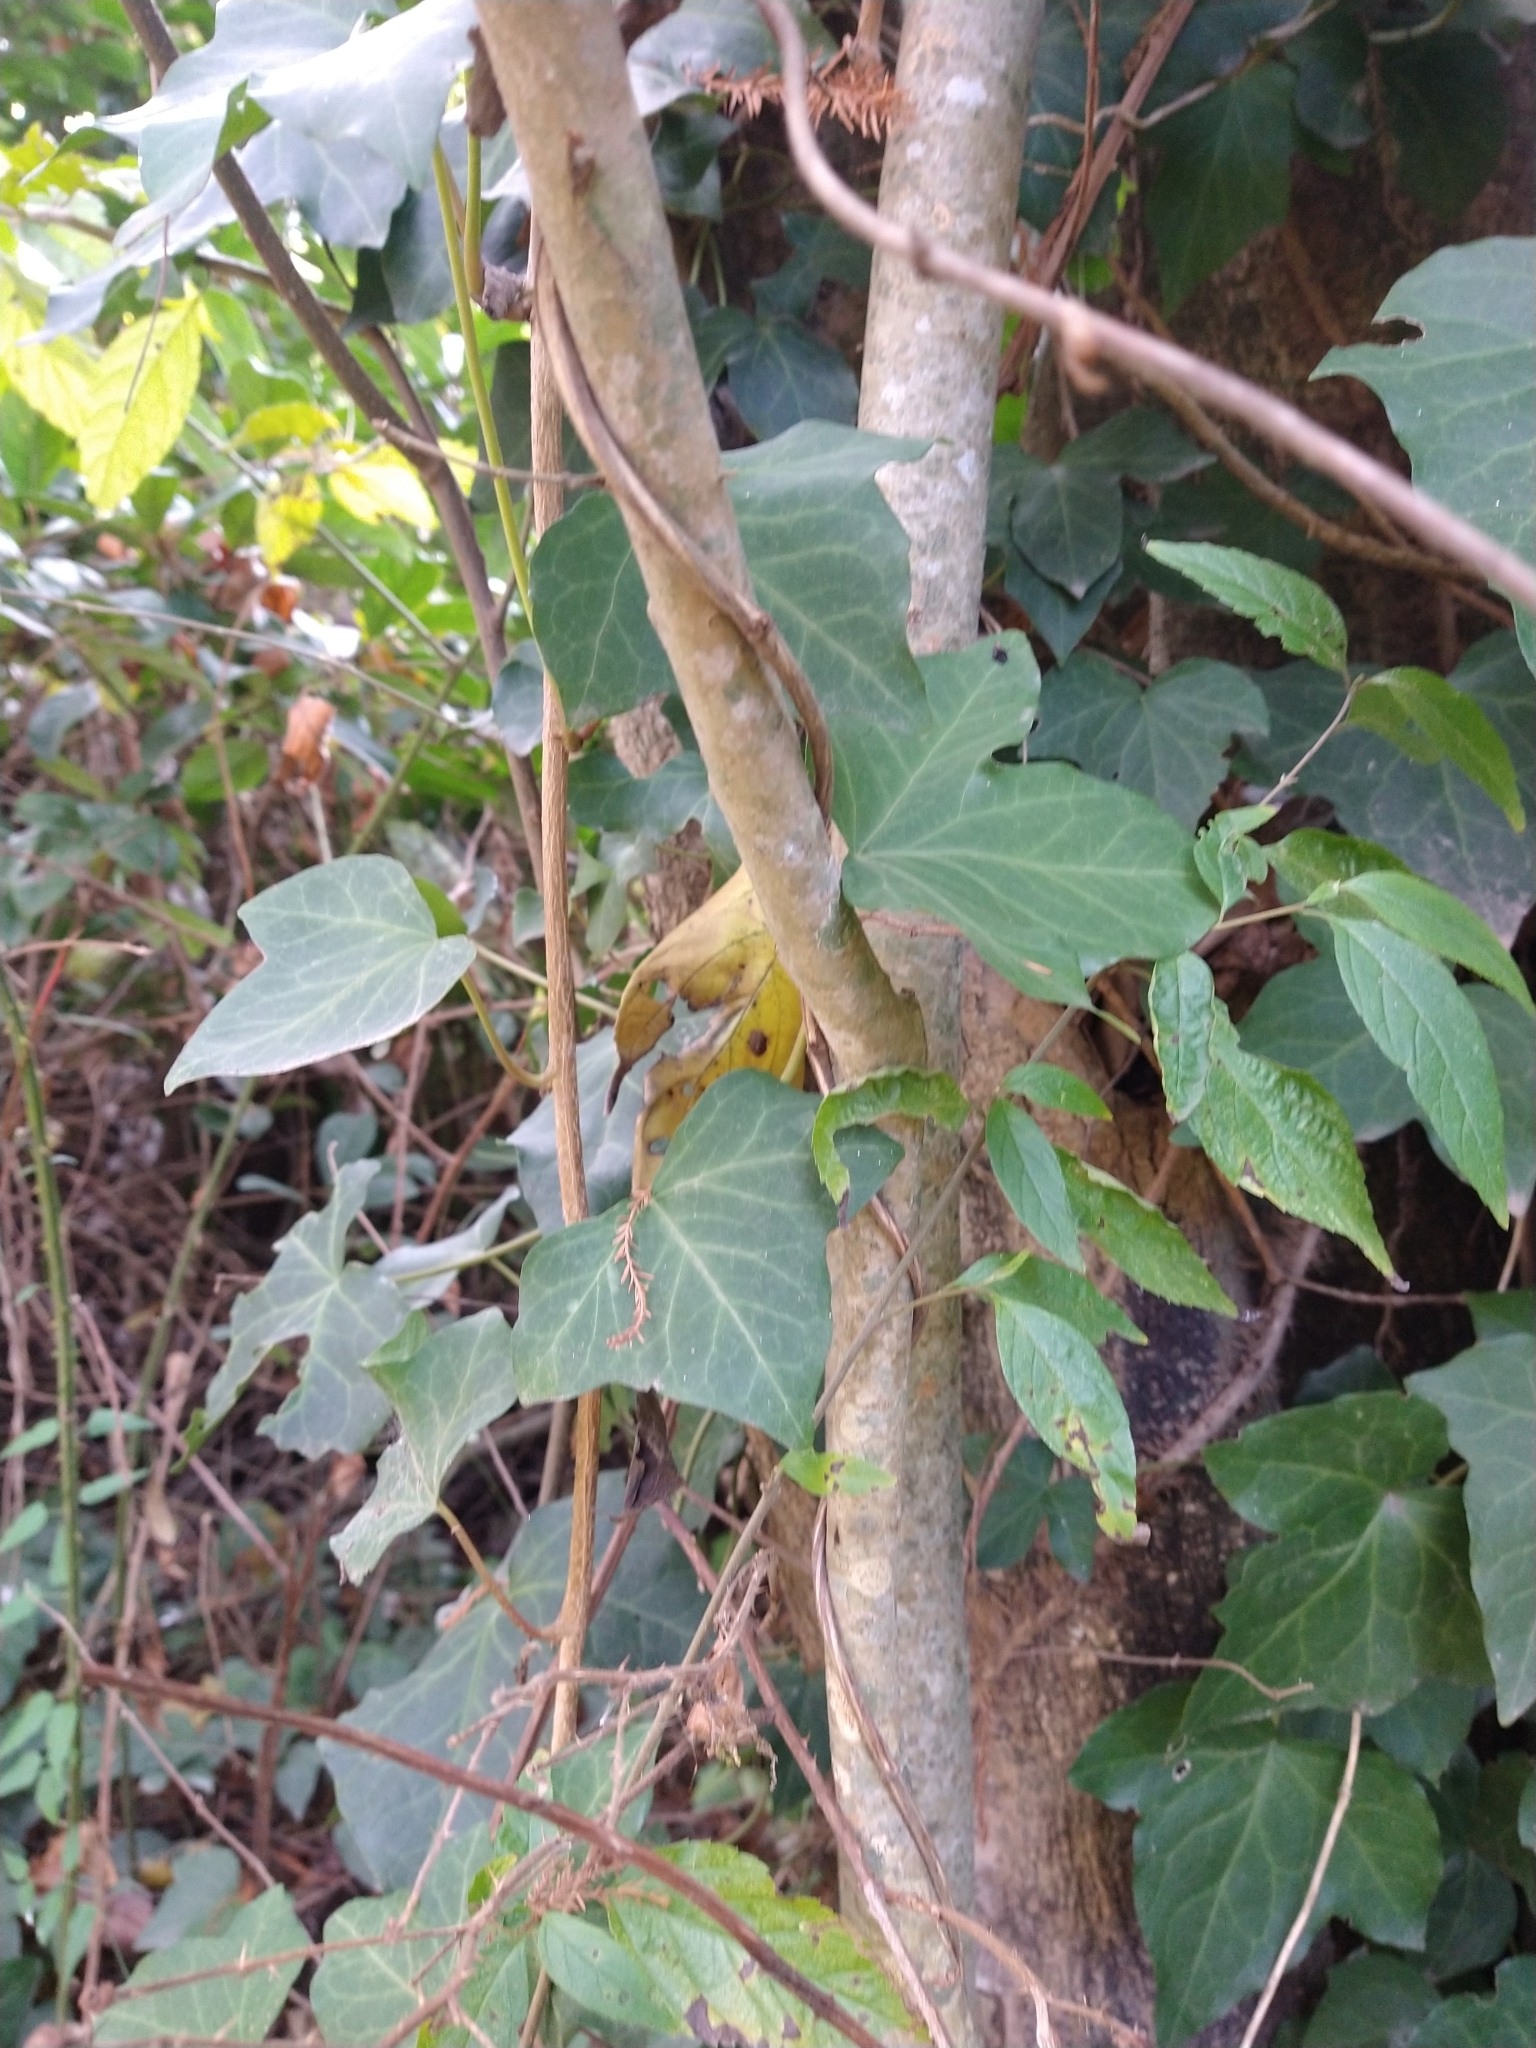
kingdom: Plantae
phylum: Tracheophyta
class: Magnoliopsida
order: Apiales
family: Araliaceae
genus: Hedera
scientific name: Hedera helix
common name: Ivy
